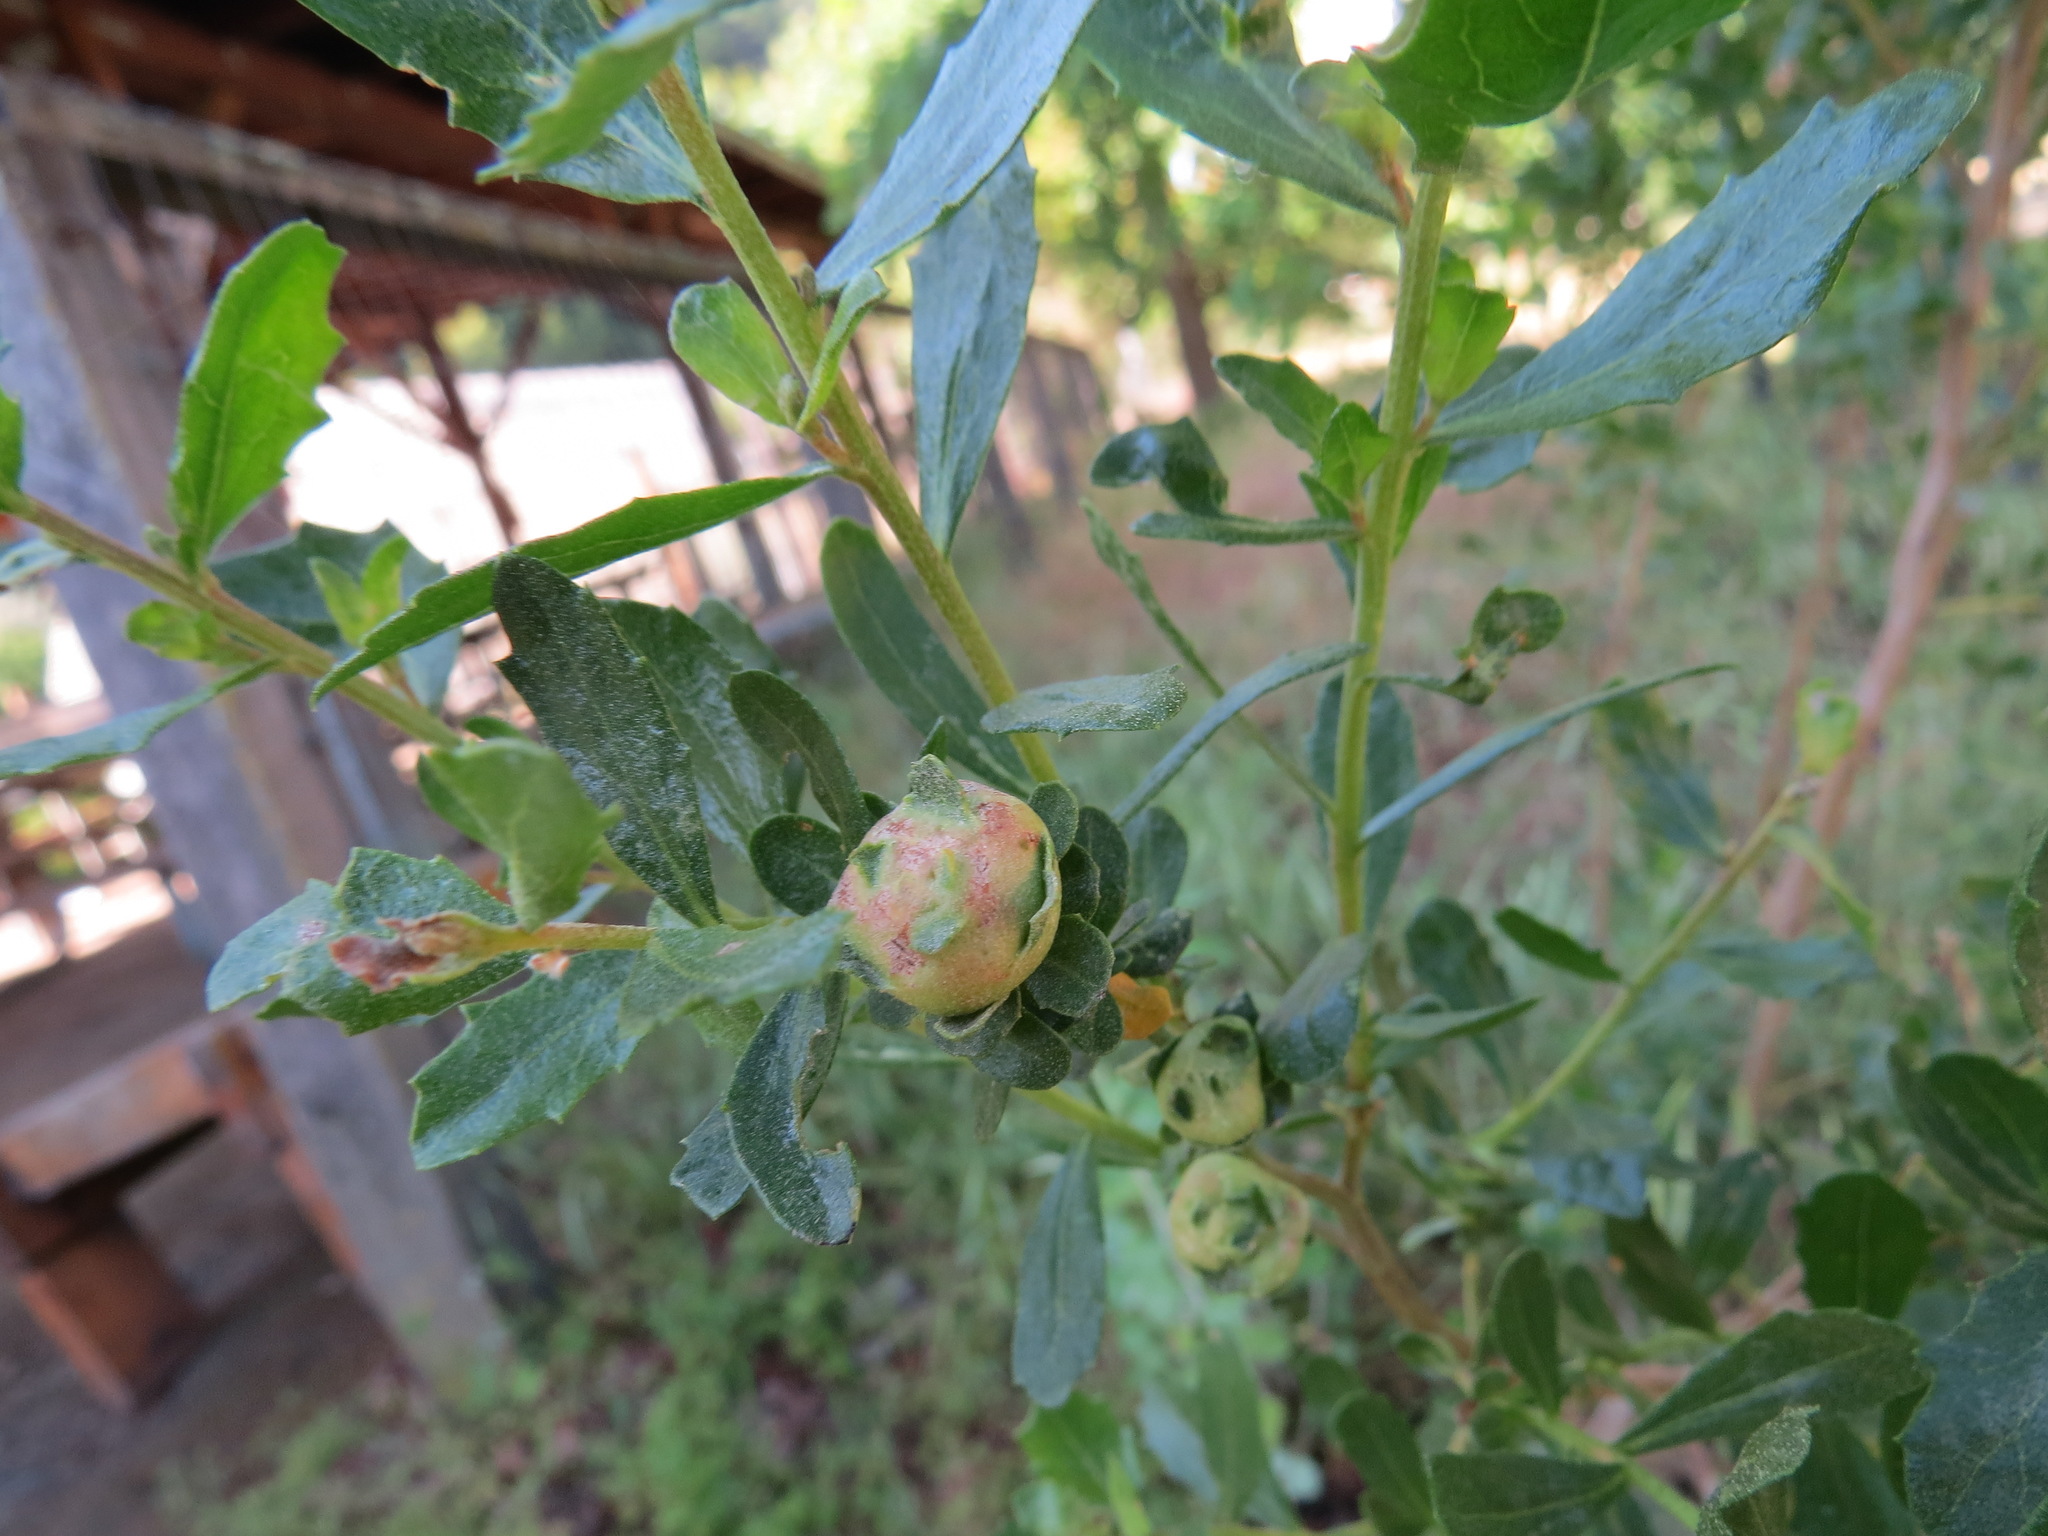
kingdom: Animalia
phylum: Arthropoda
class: Insecta
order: Diptera
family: Cecidomyiidae
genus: Rhopalomyia
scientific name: Rhopalomyia californica
